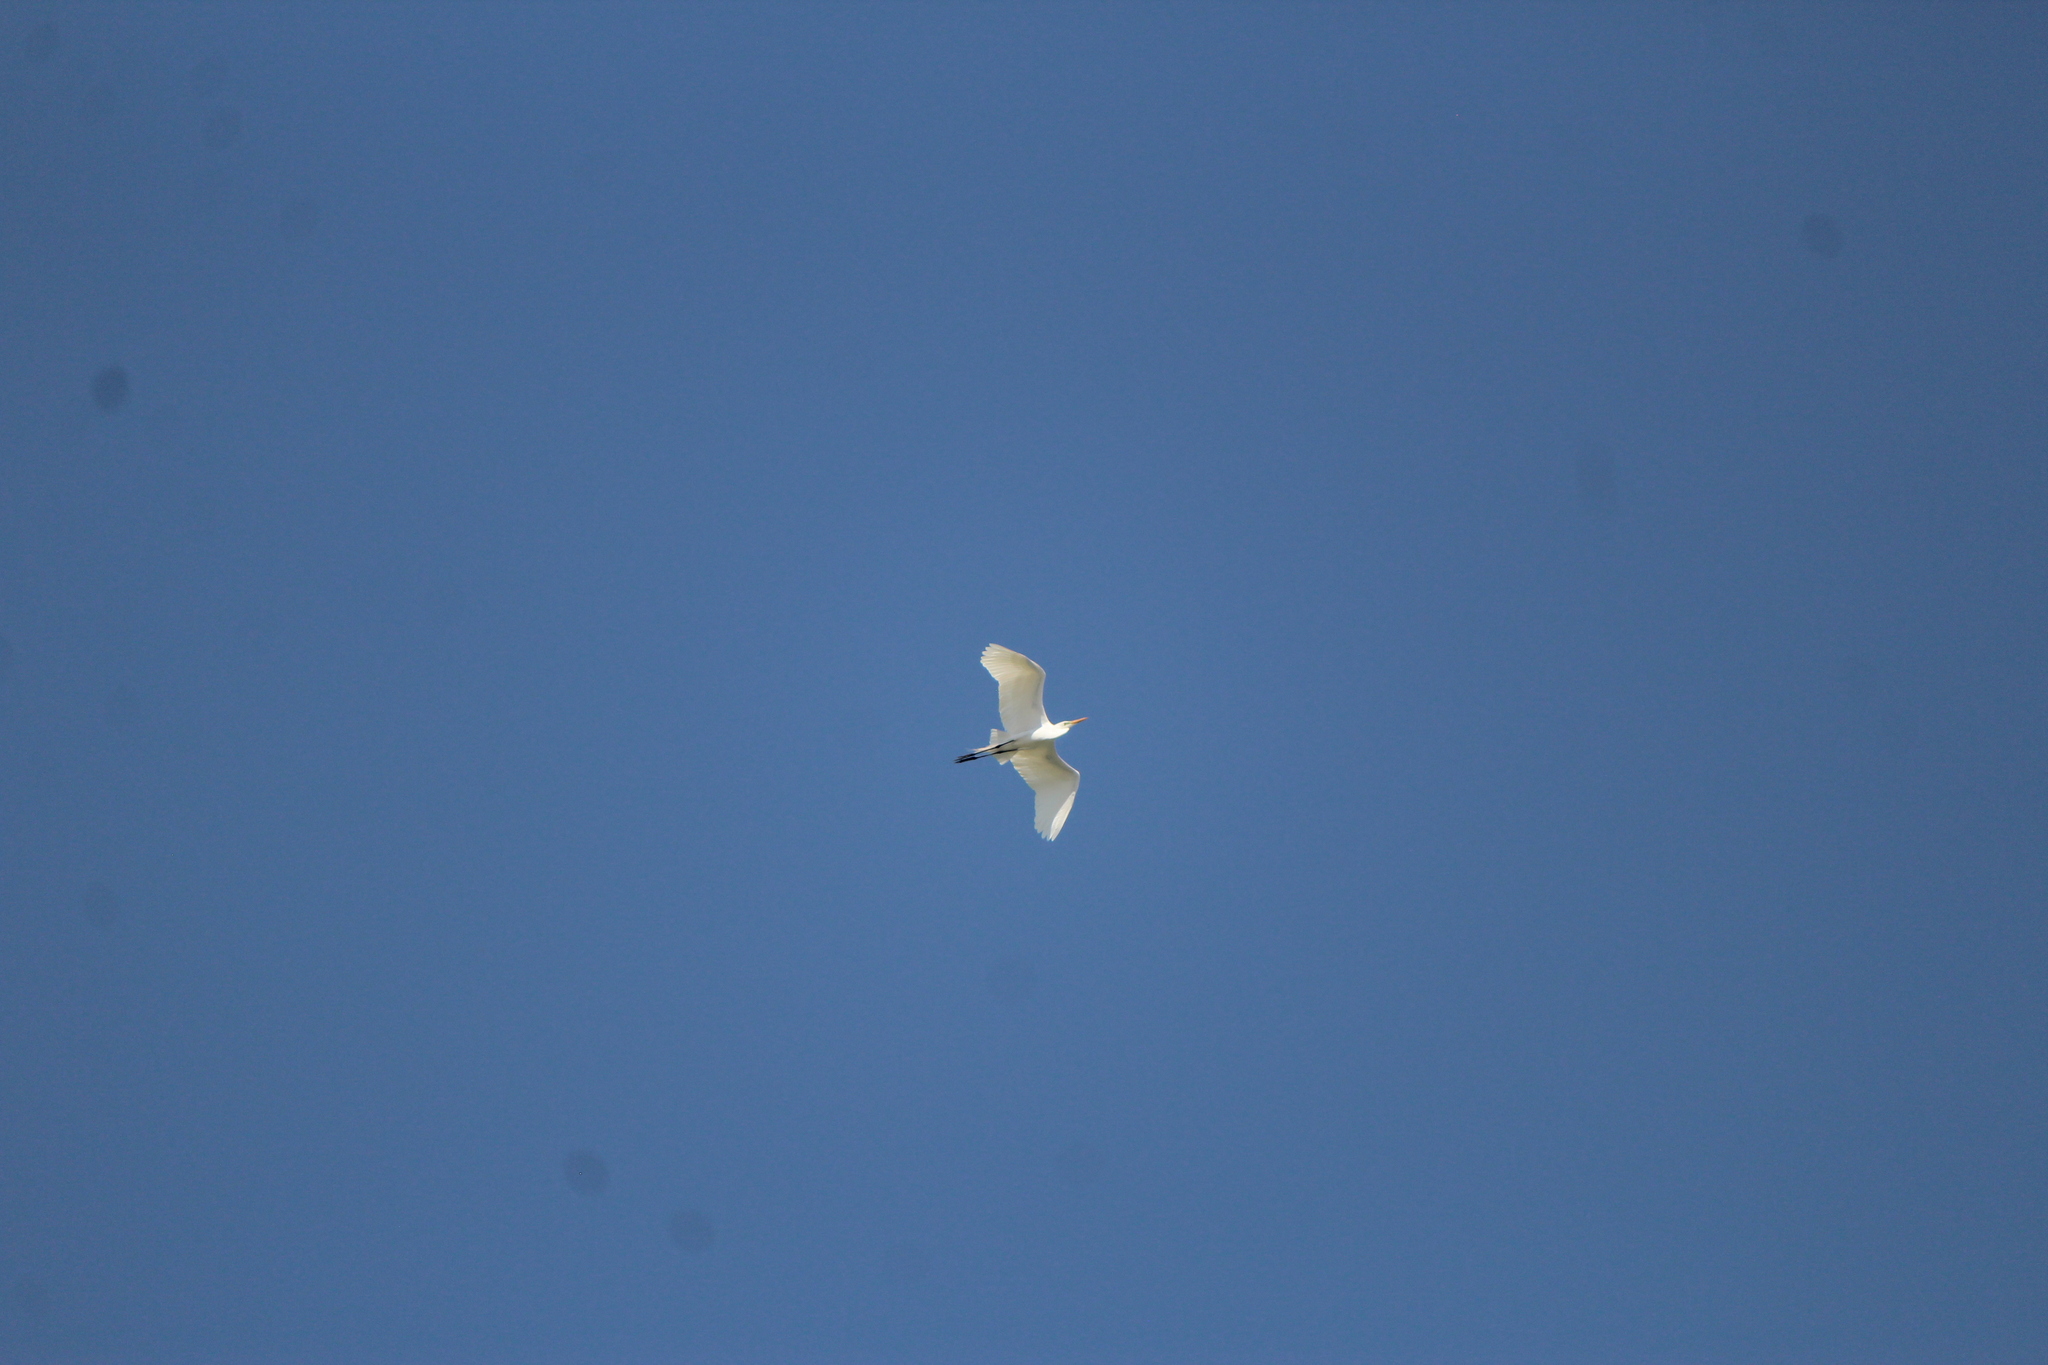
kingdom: Animalia
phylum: Chordata
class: Aves
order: Pelecaniformes
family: Ardeidae
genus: Ardea
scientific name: Ardea alba
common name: Great egret
